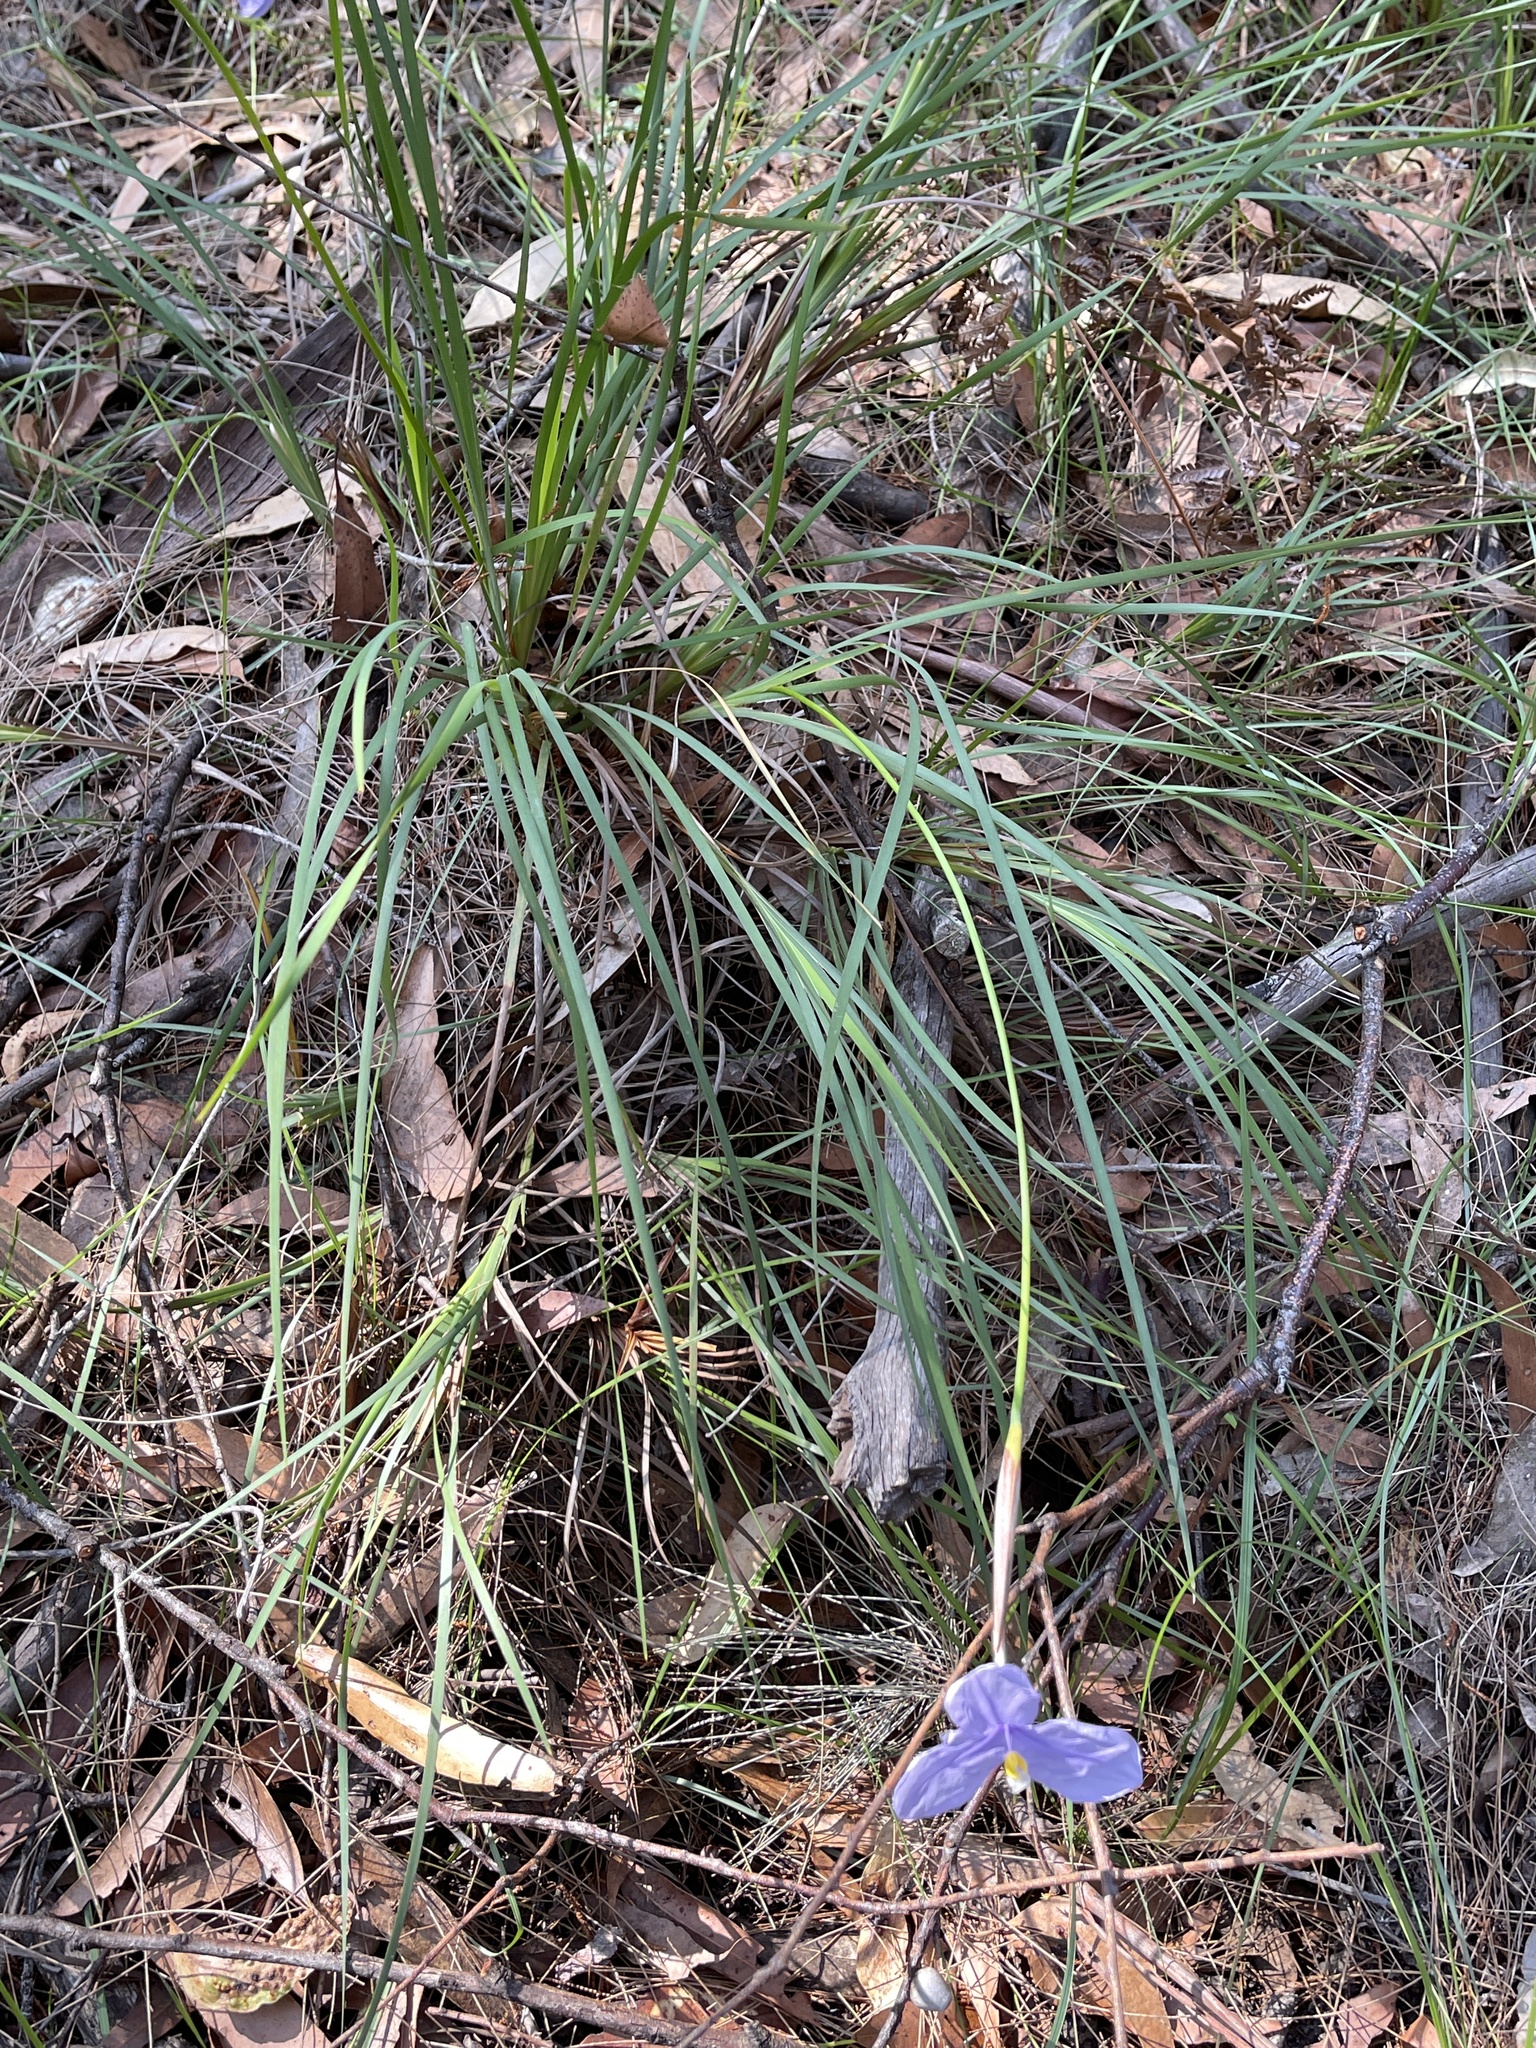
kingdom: Plantae
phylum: Tracheophyta
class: Liliopsida
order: Asparagales
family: Iridaceae
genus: Patersonia
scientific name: Patersonia glabrata
